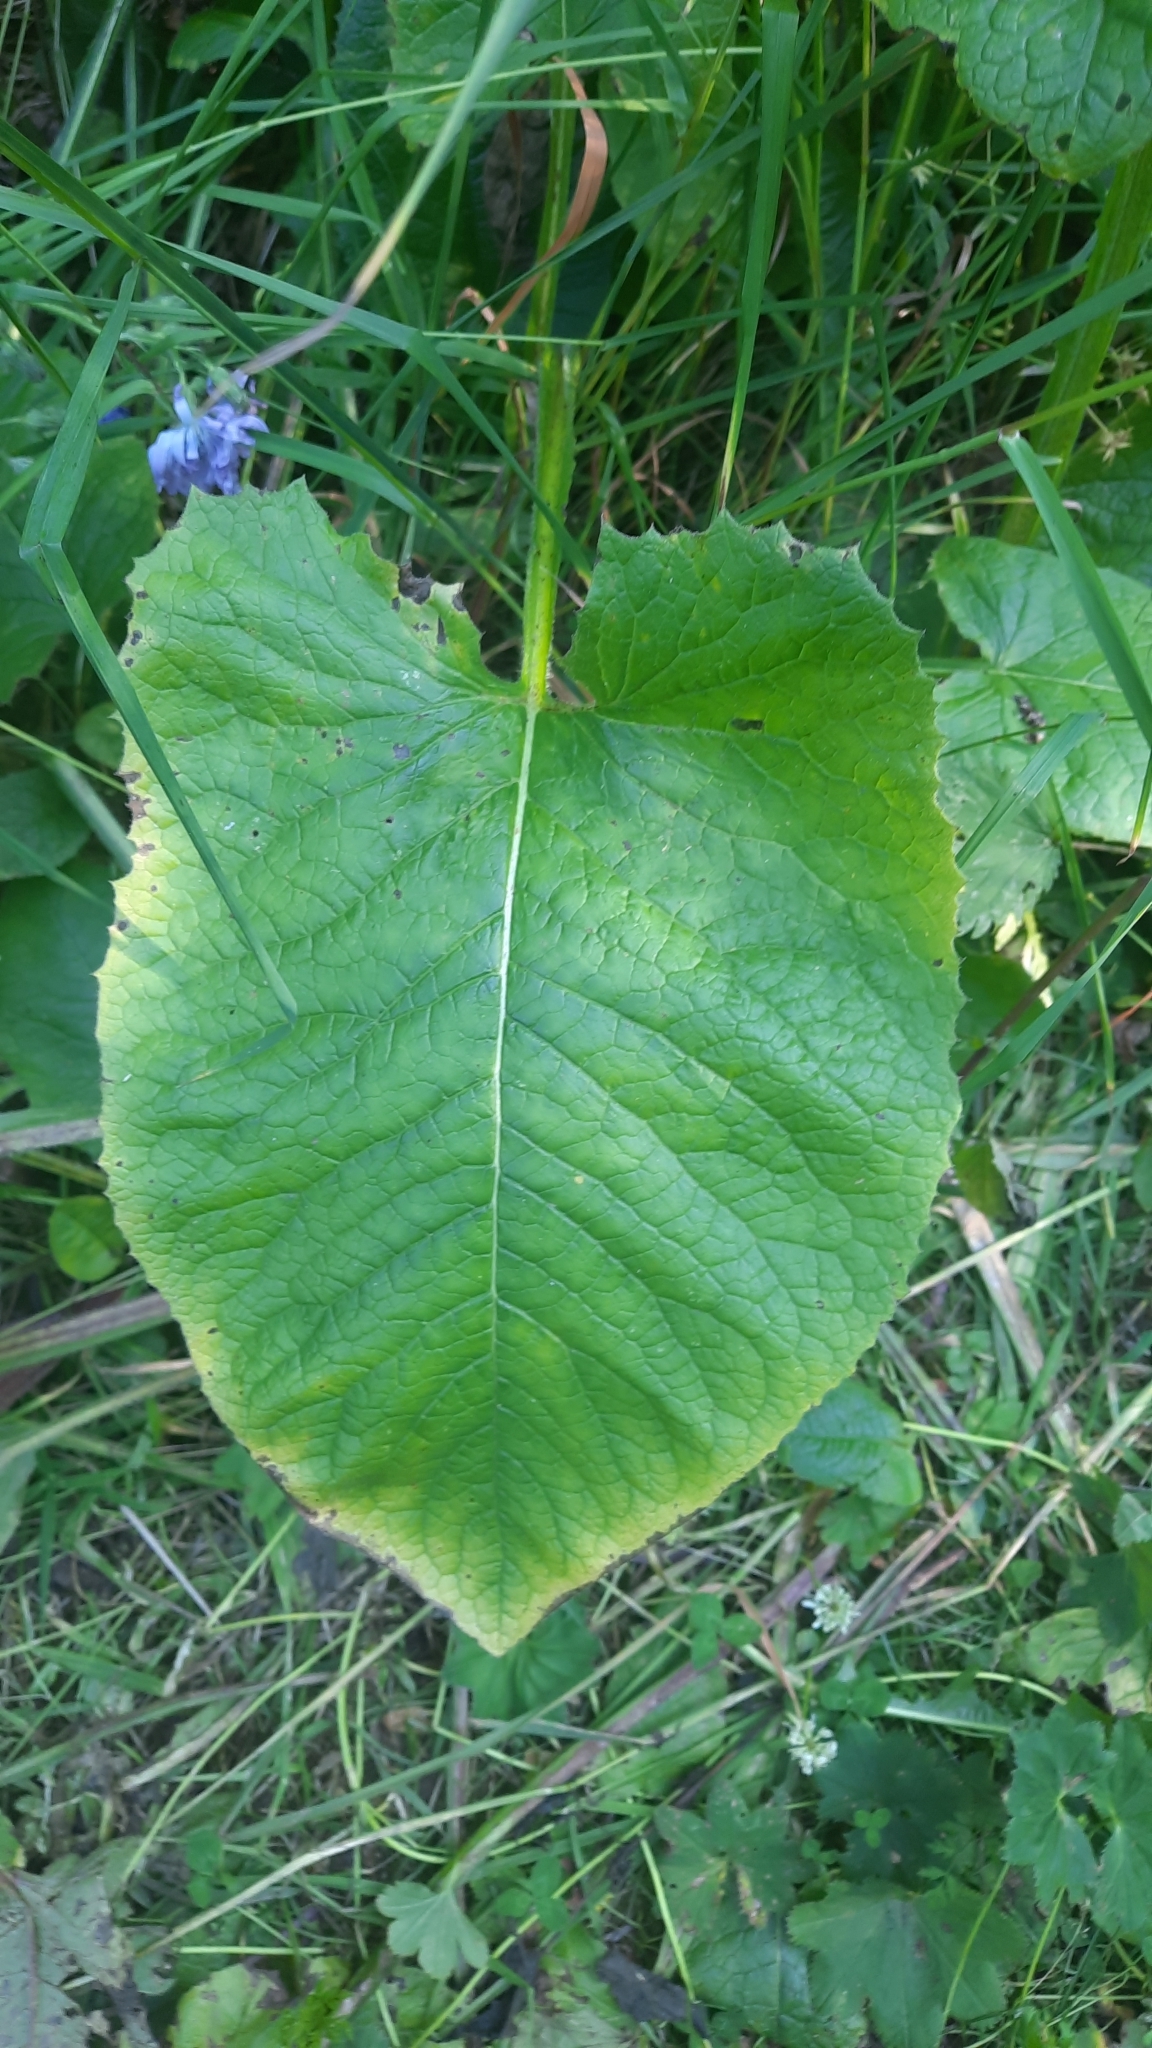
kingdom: Plantae
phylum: Tracheophyta
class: Magnoliopsida
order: Asterales
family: Asteraceae
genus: Lactuca
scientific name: Lactuca macrophylla
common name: Common blue-sow-thistle
